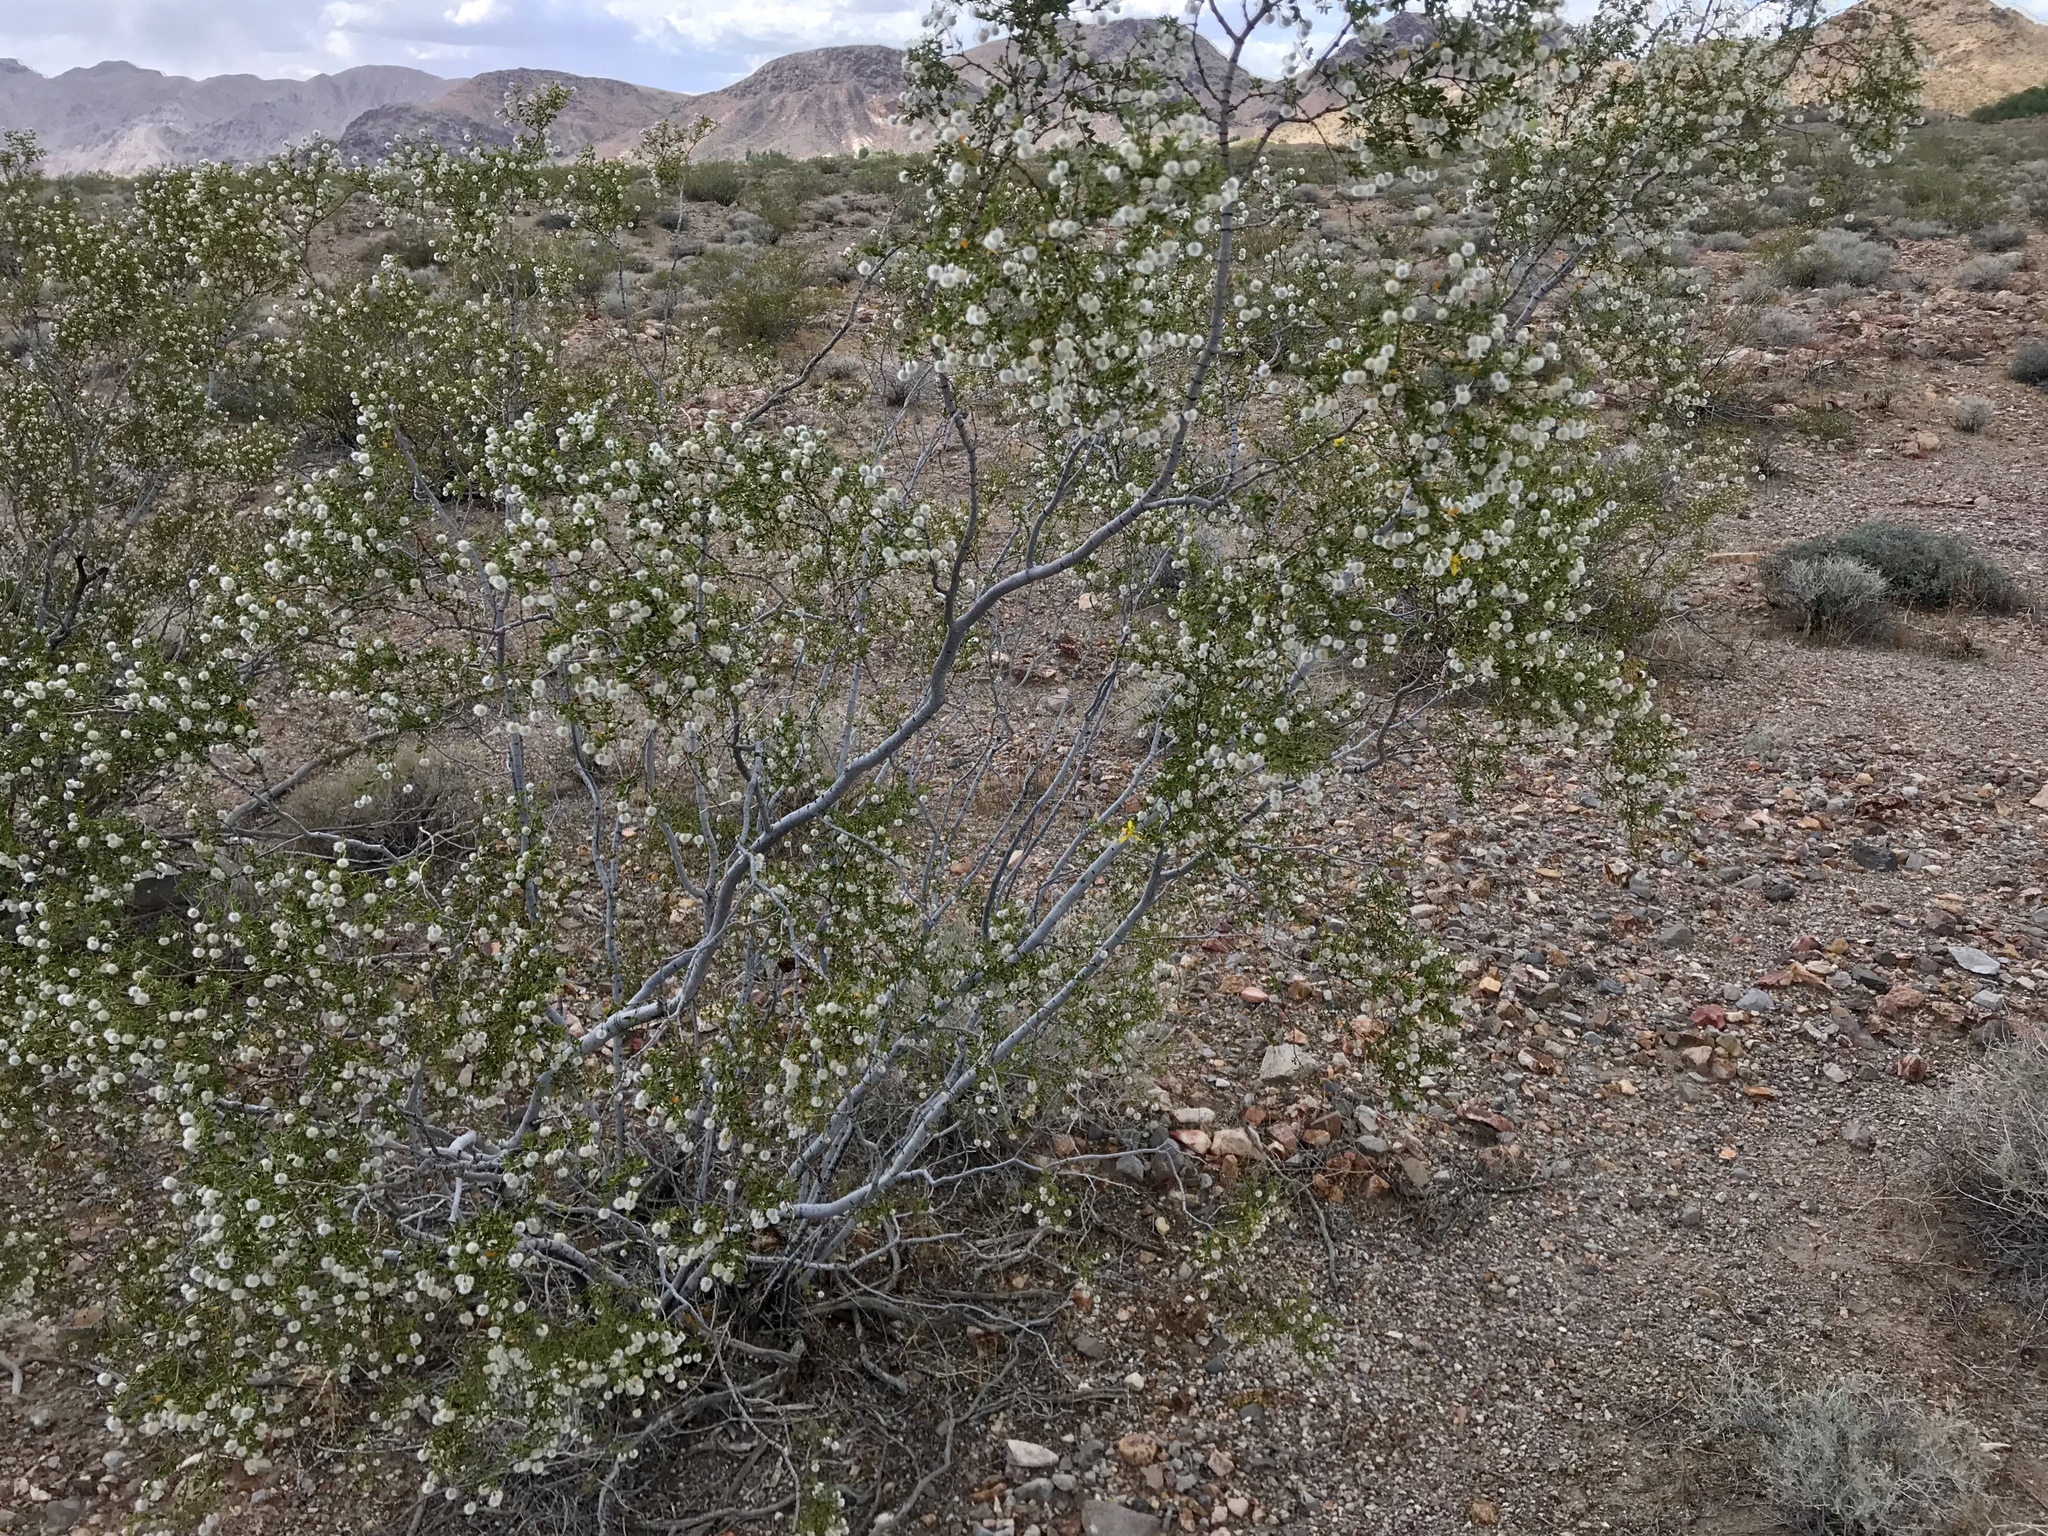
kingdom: Plantae
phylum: Tracheophyta
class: Magnoliopsida
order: Zygophyllales
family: Zygophyllaceae
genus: Larrea
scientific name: Larrea tridentata
